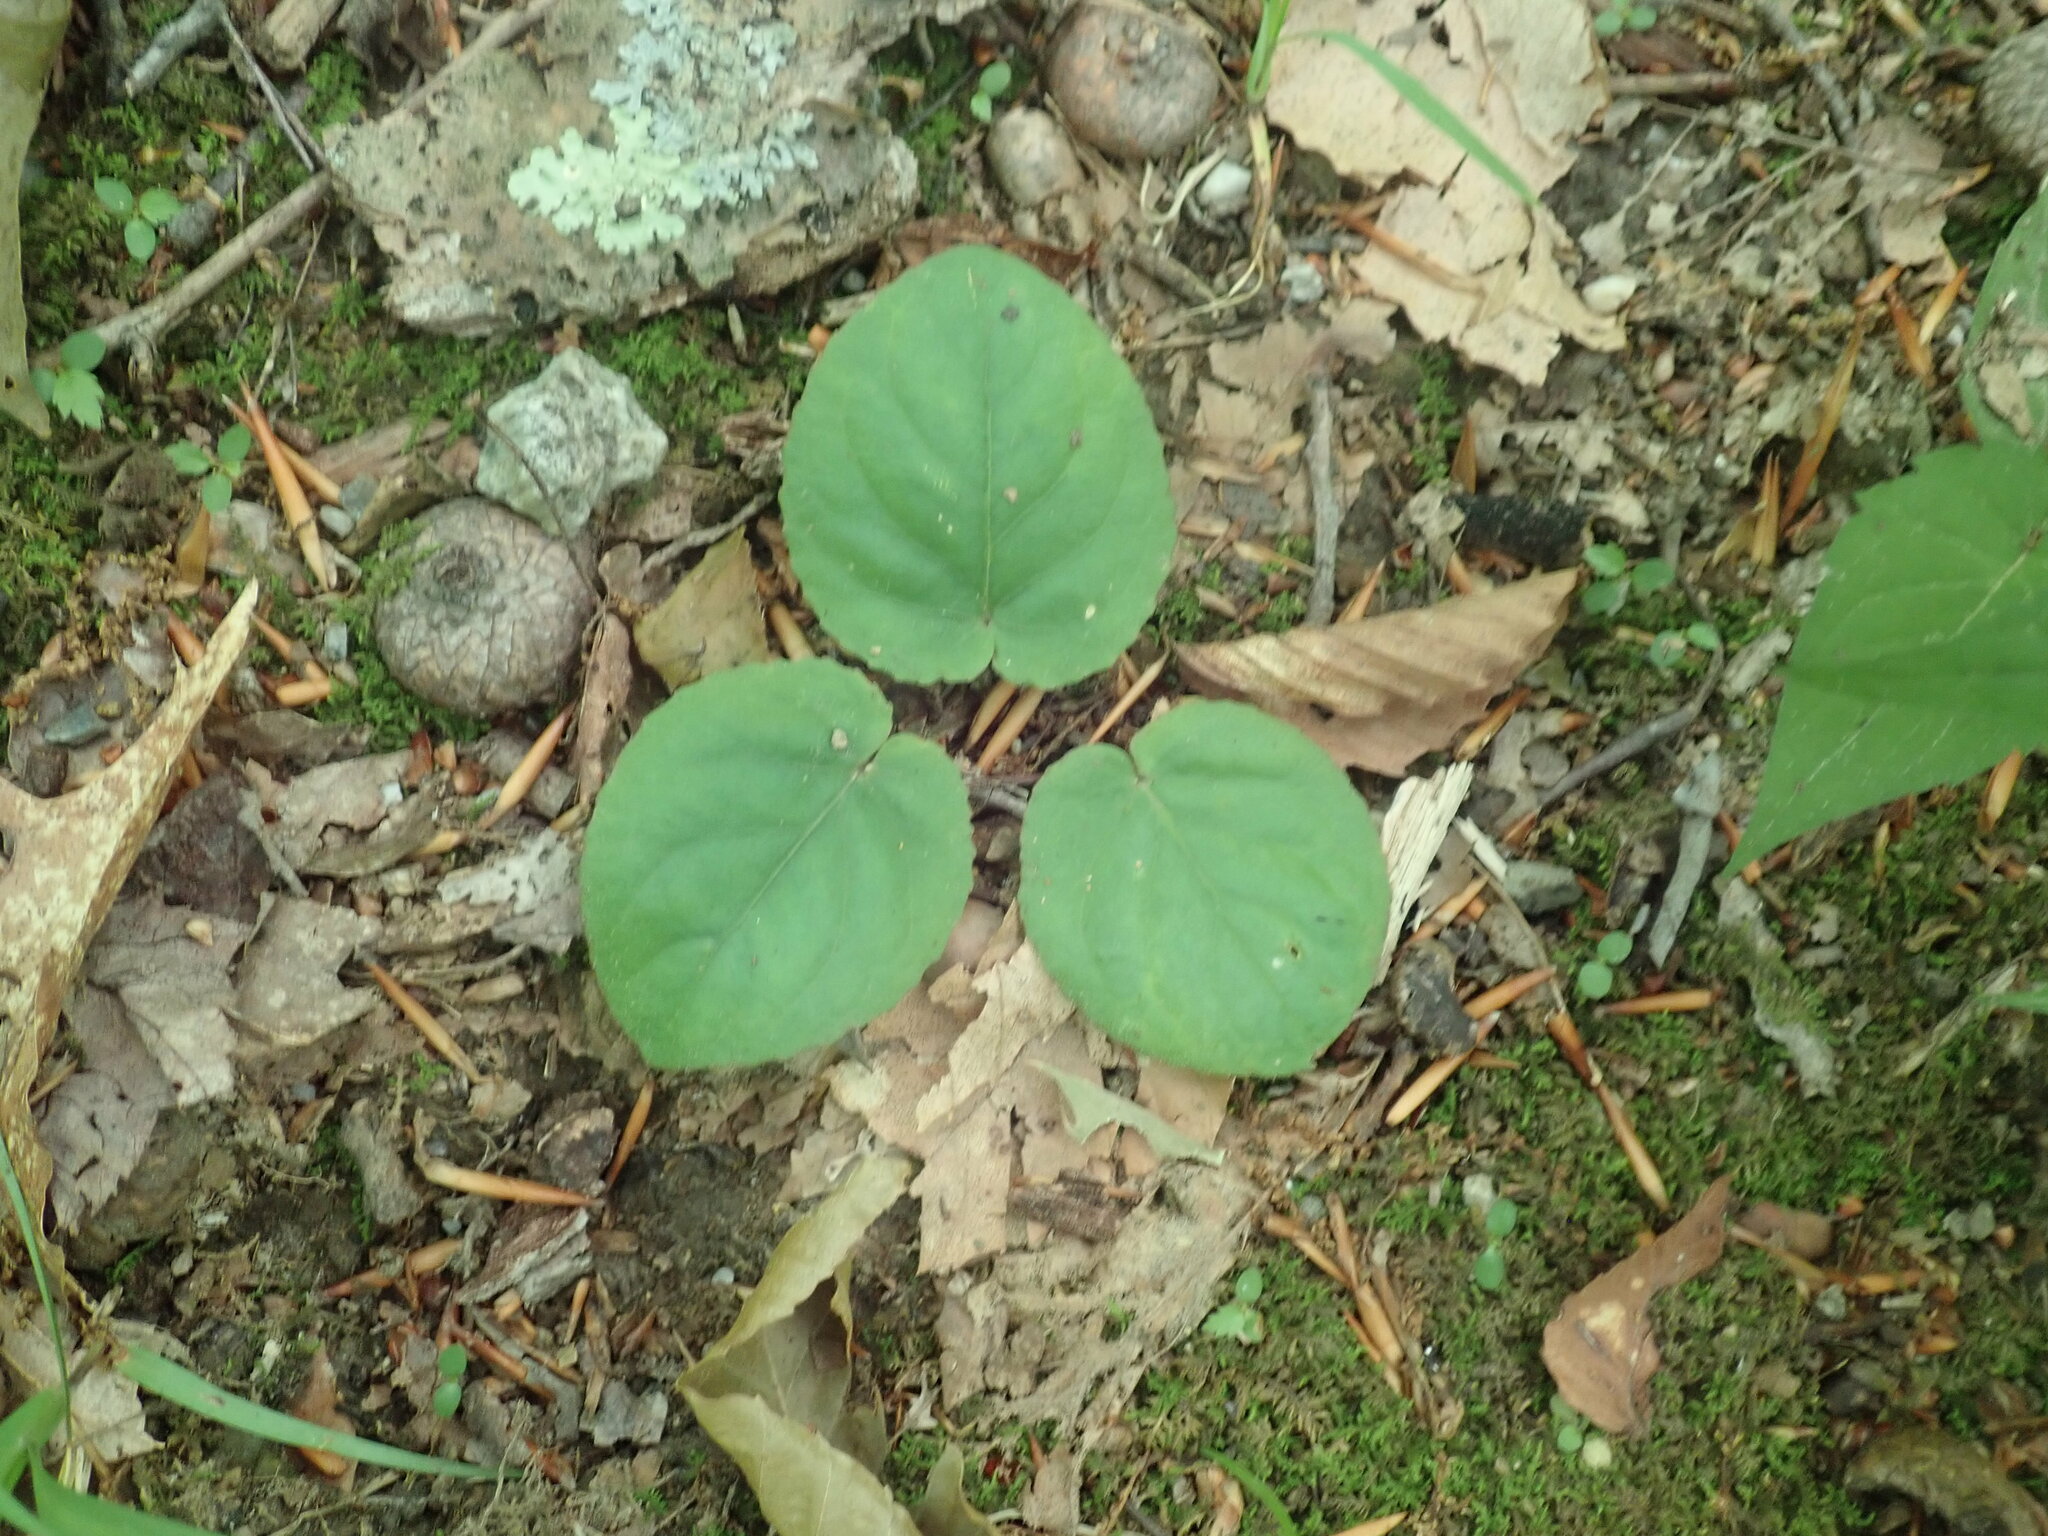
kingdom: Plantae
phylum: Tracheophyta
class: Magnoliopsida
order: Malpighiales
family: Violaceae
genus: Viola
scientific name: Viola rotundifolia
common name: Early yellow violet
